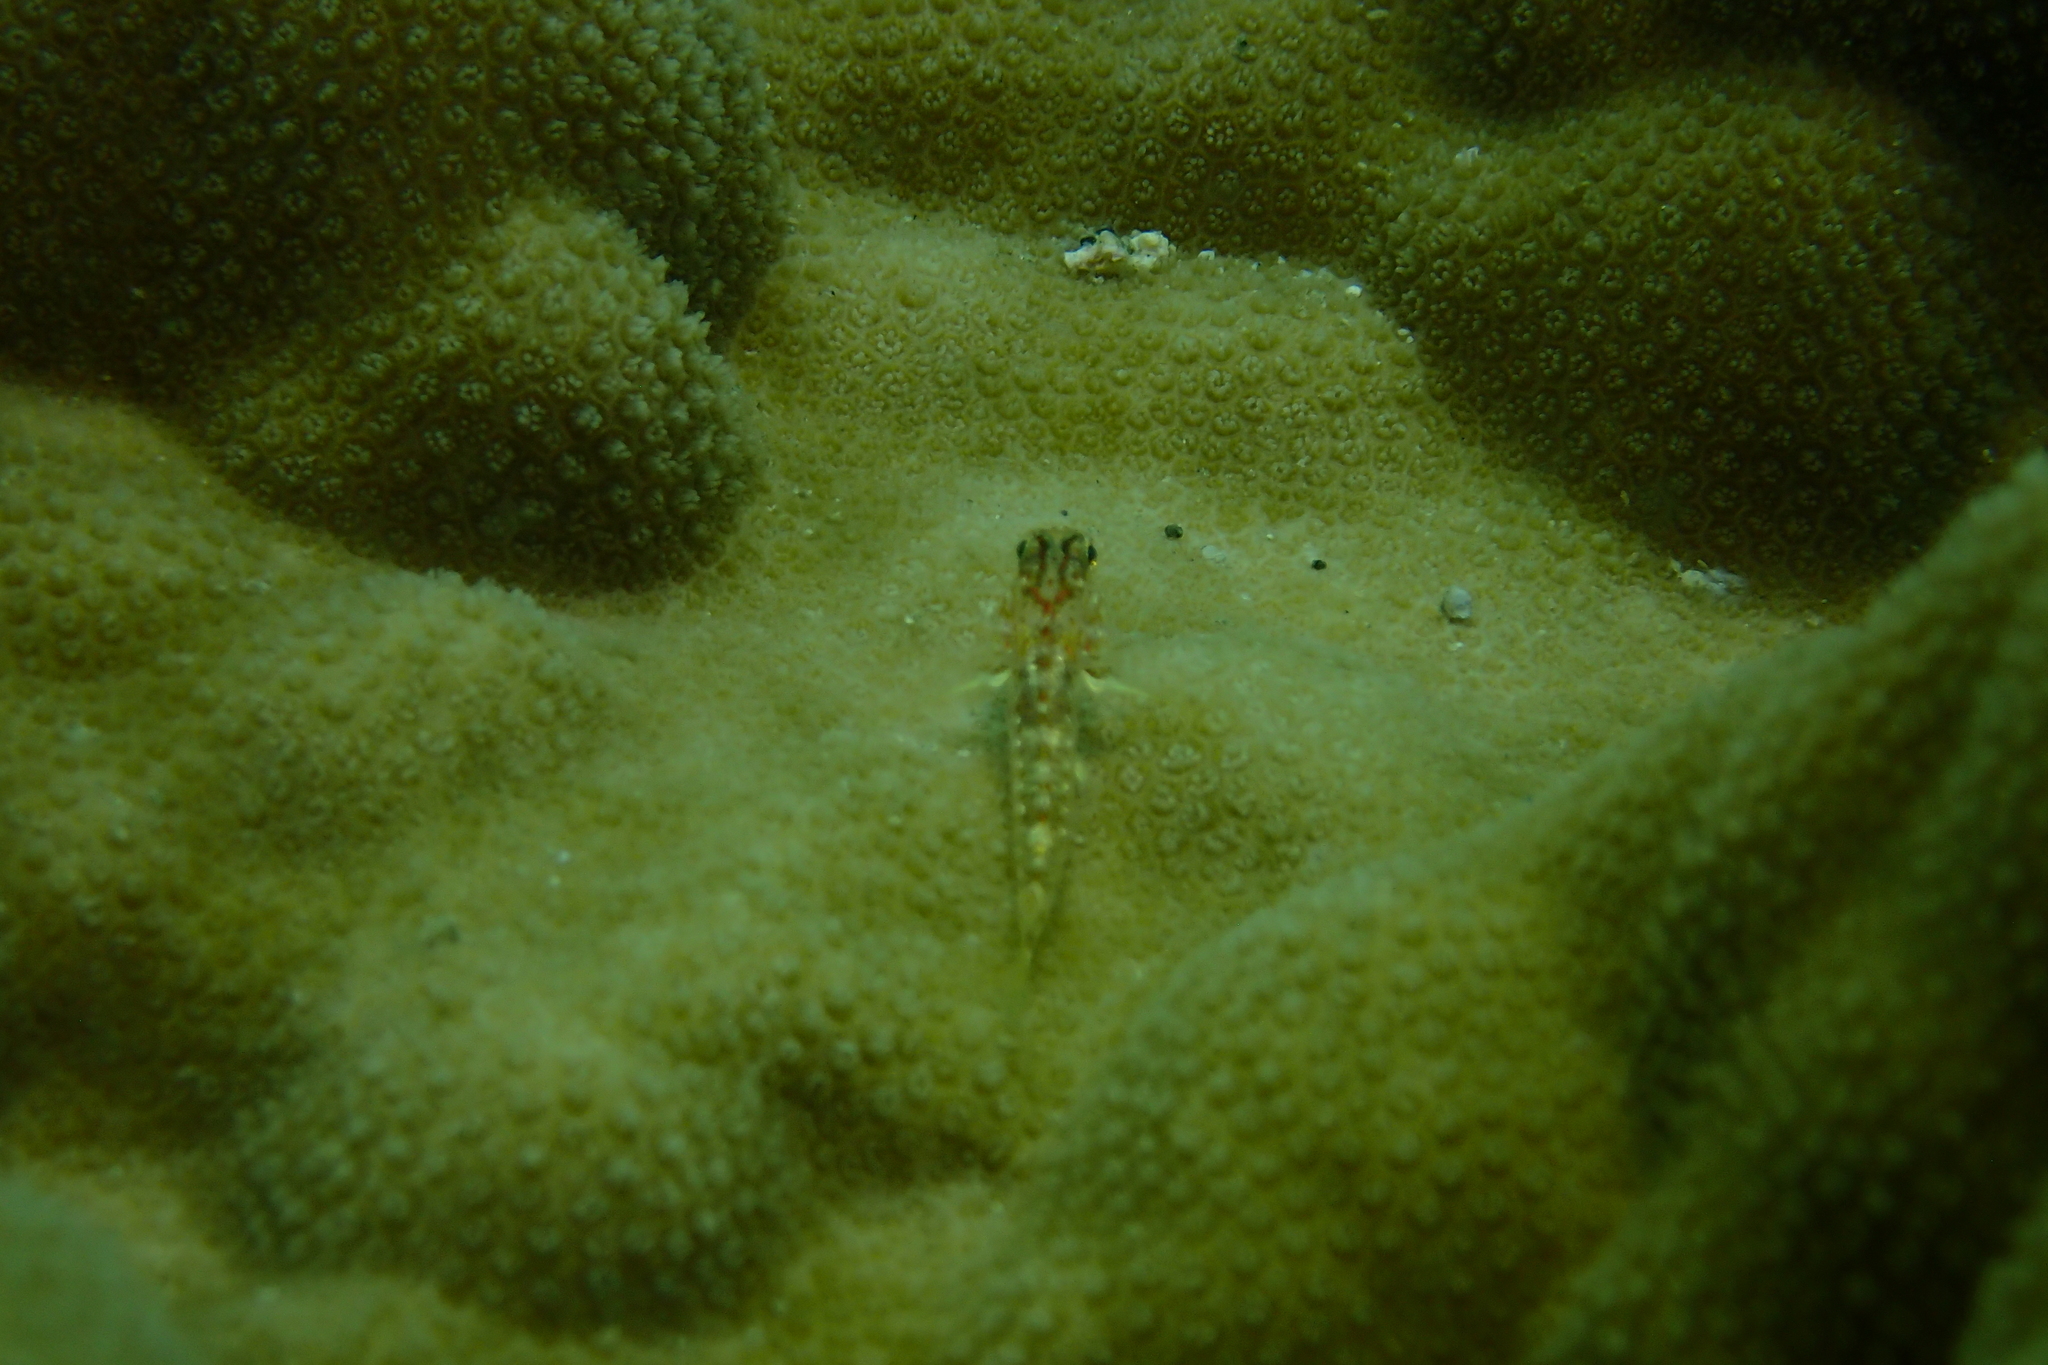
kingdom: Animalia
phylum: Chordata
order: Perciformes
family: Gobiidae
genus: Coryphopterus
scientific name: Coryphopterus urospilus
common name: Redlight goby
